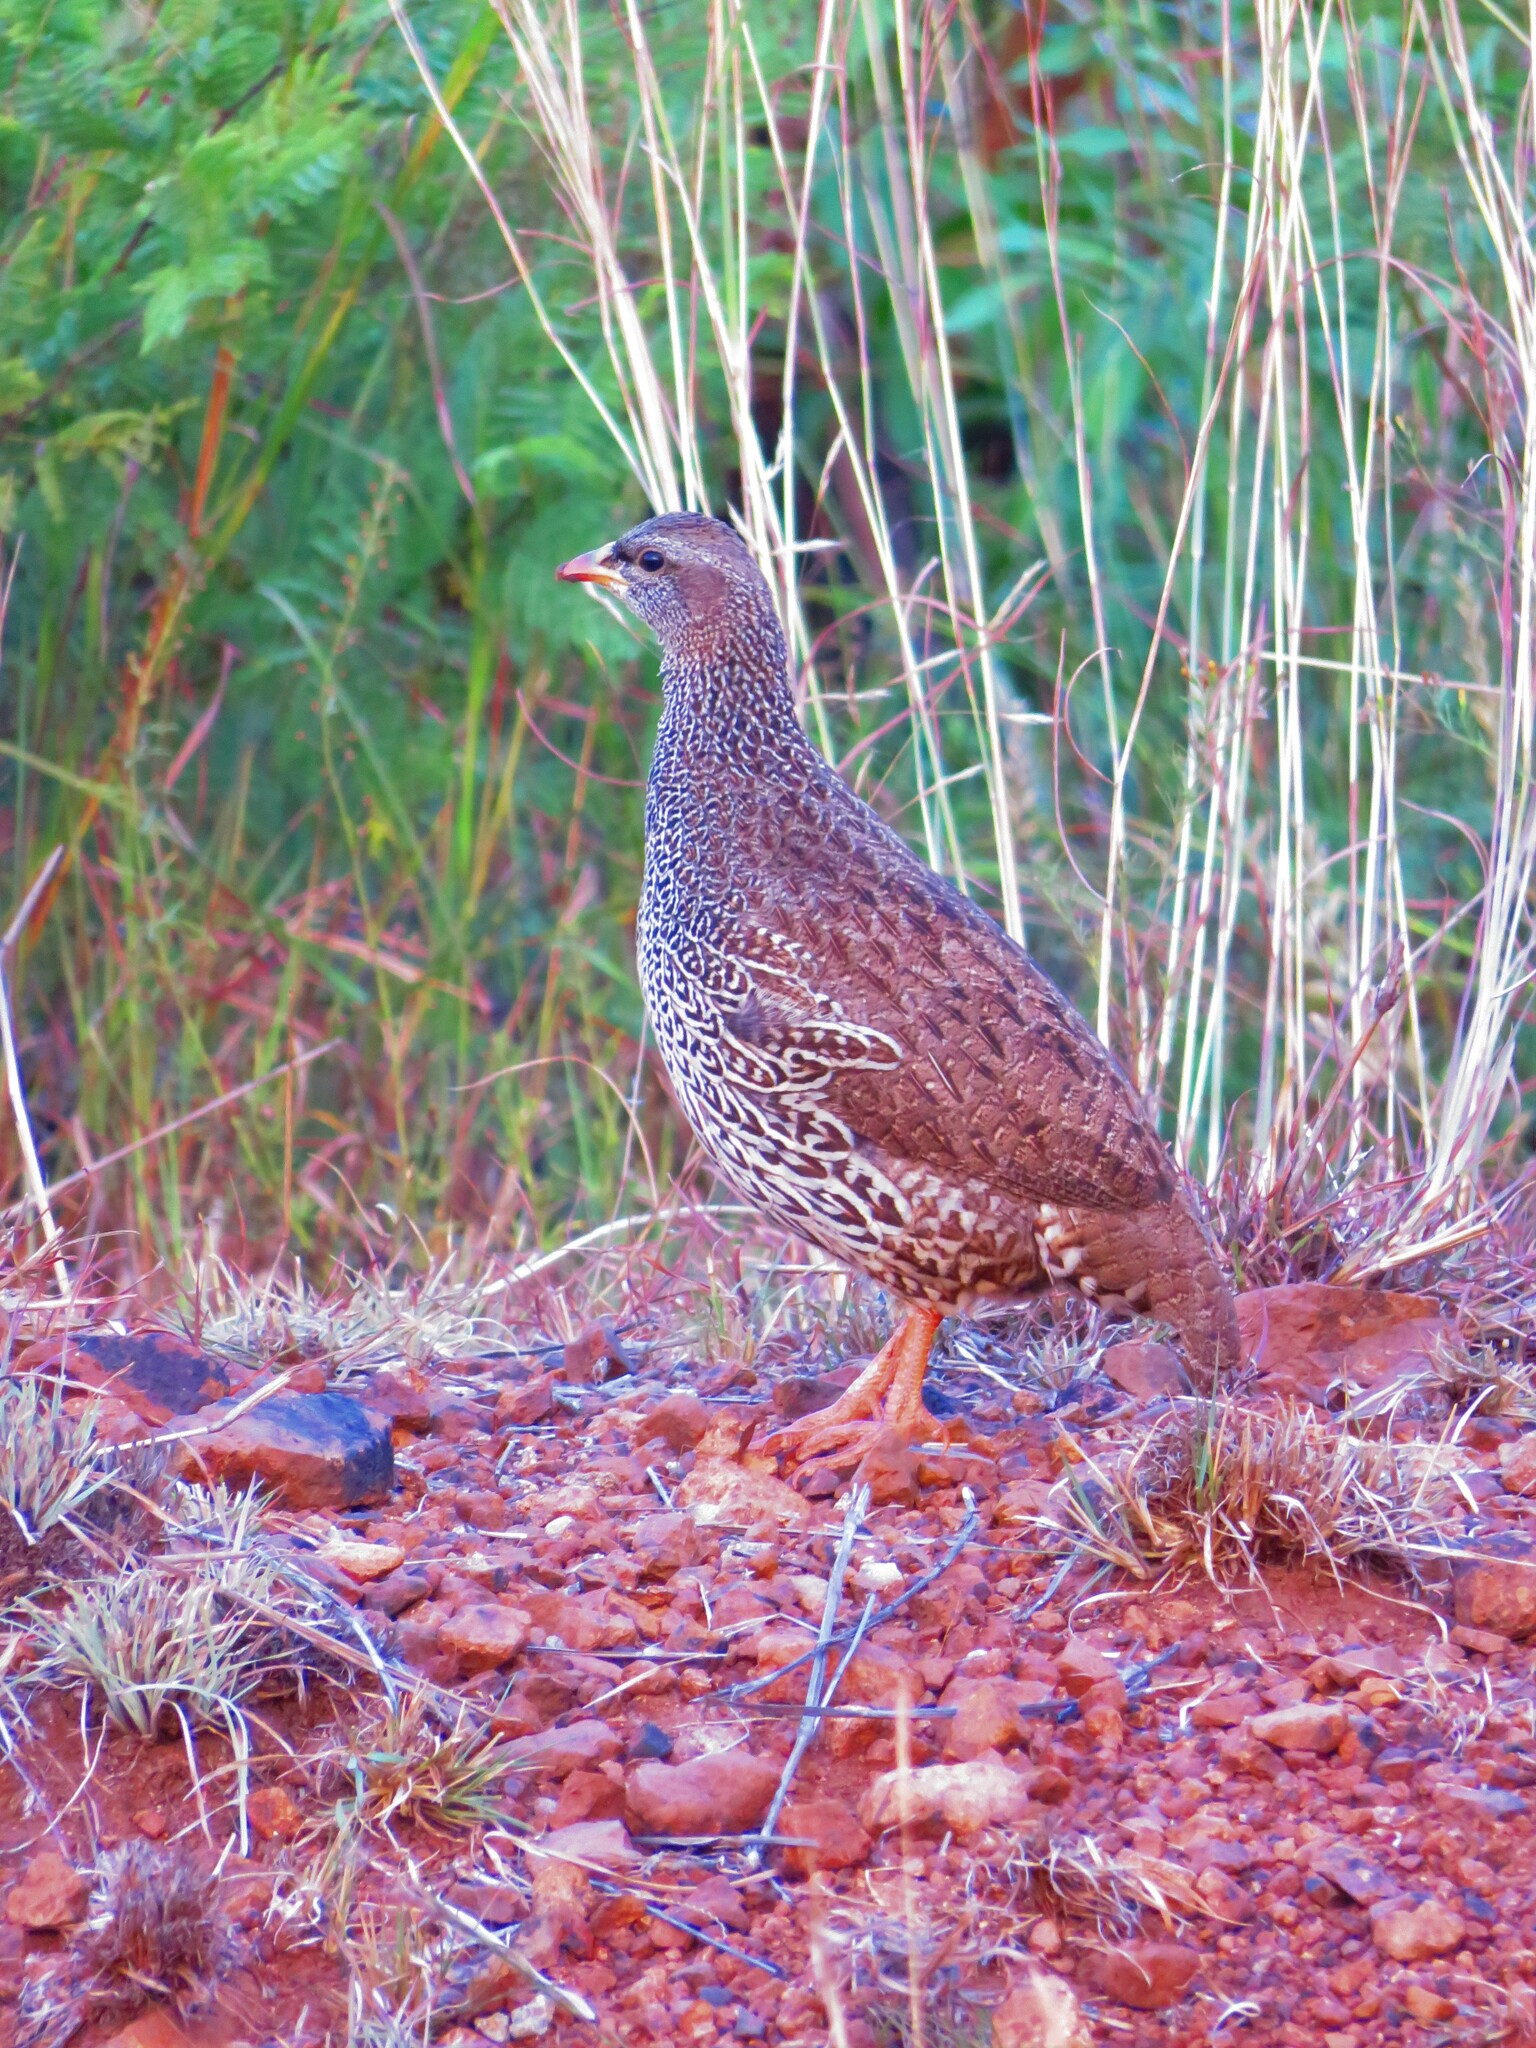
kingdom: Animalia
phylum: Chordata
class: Aves
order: Galliformes
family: Phasianidae
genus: Pternistis
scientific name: Pternistis natalensis
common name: Natal spurfowl
